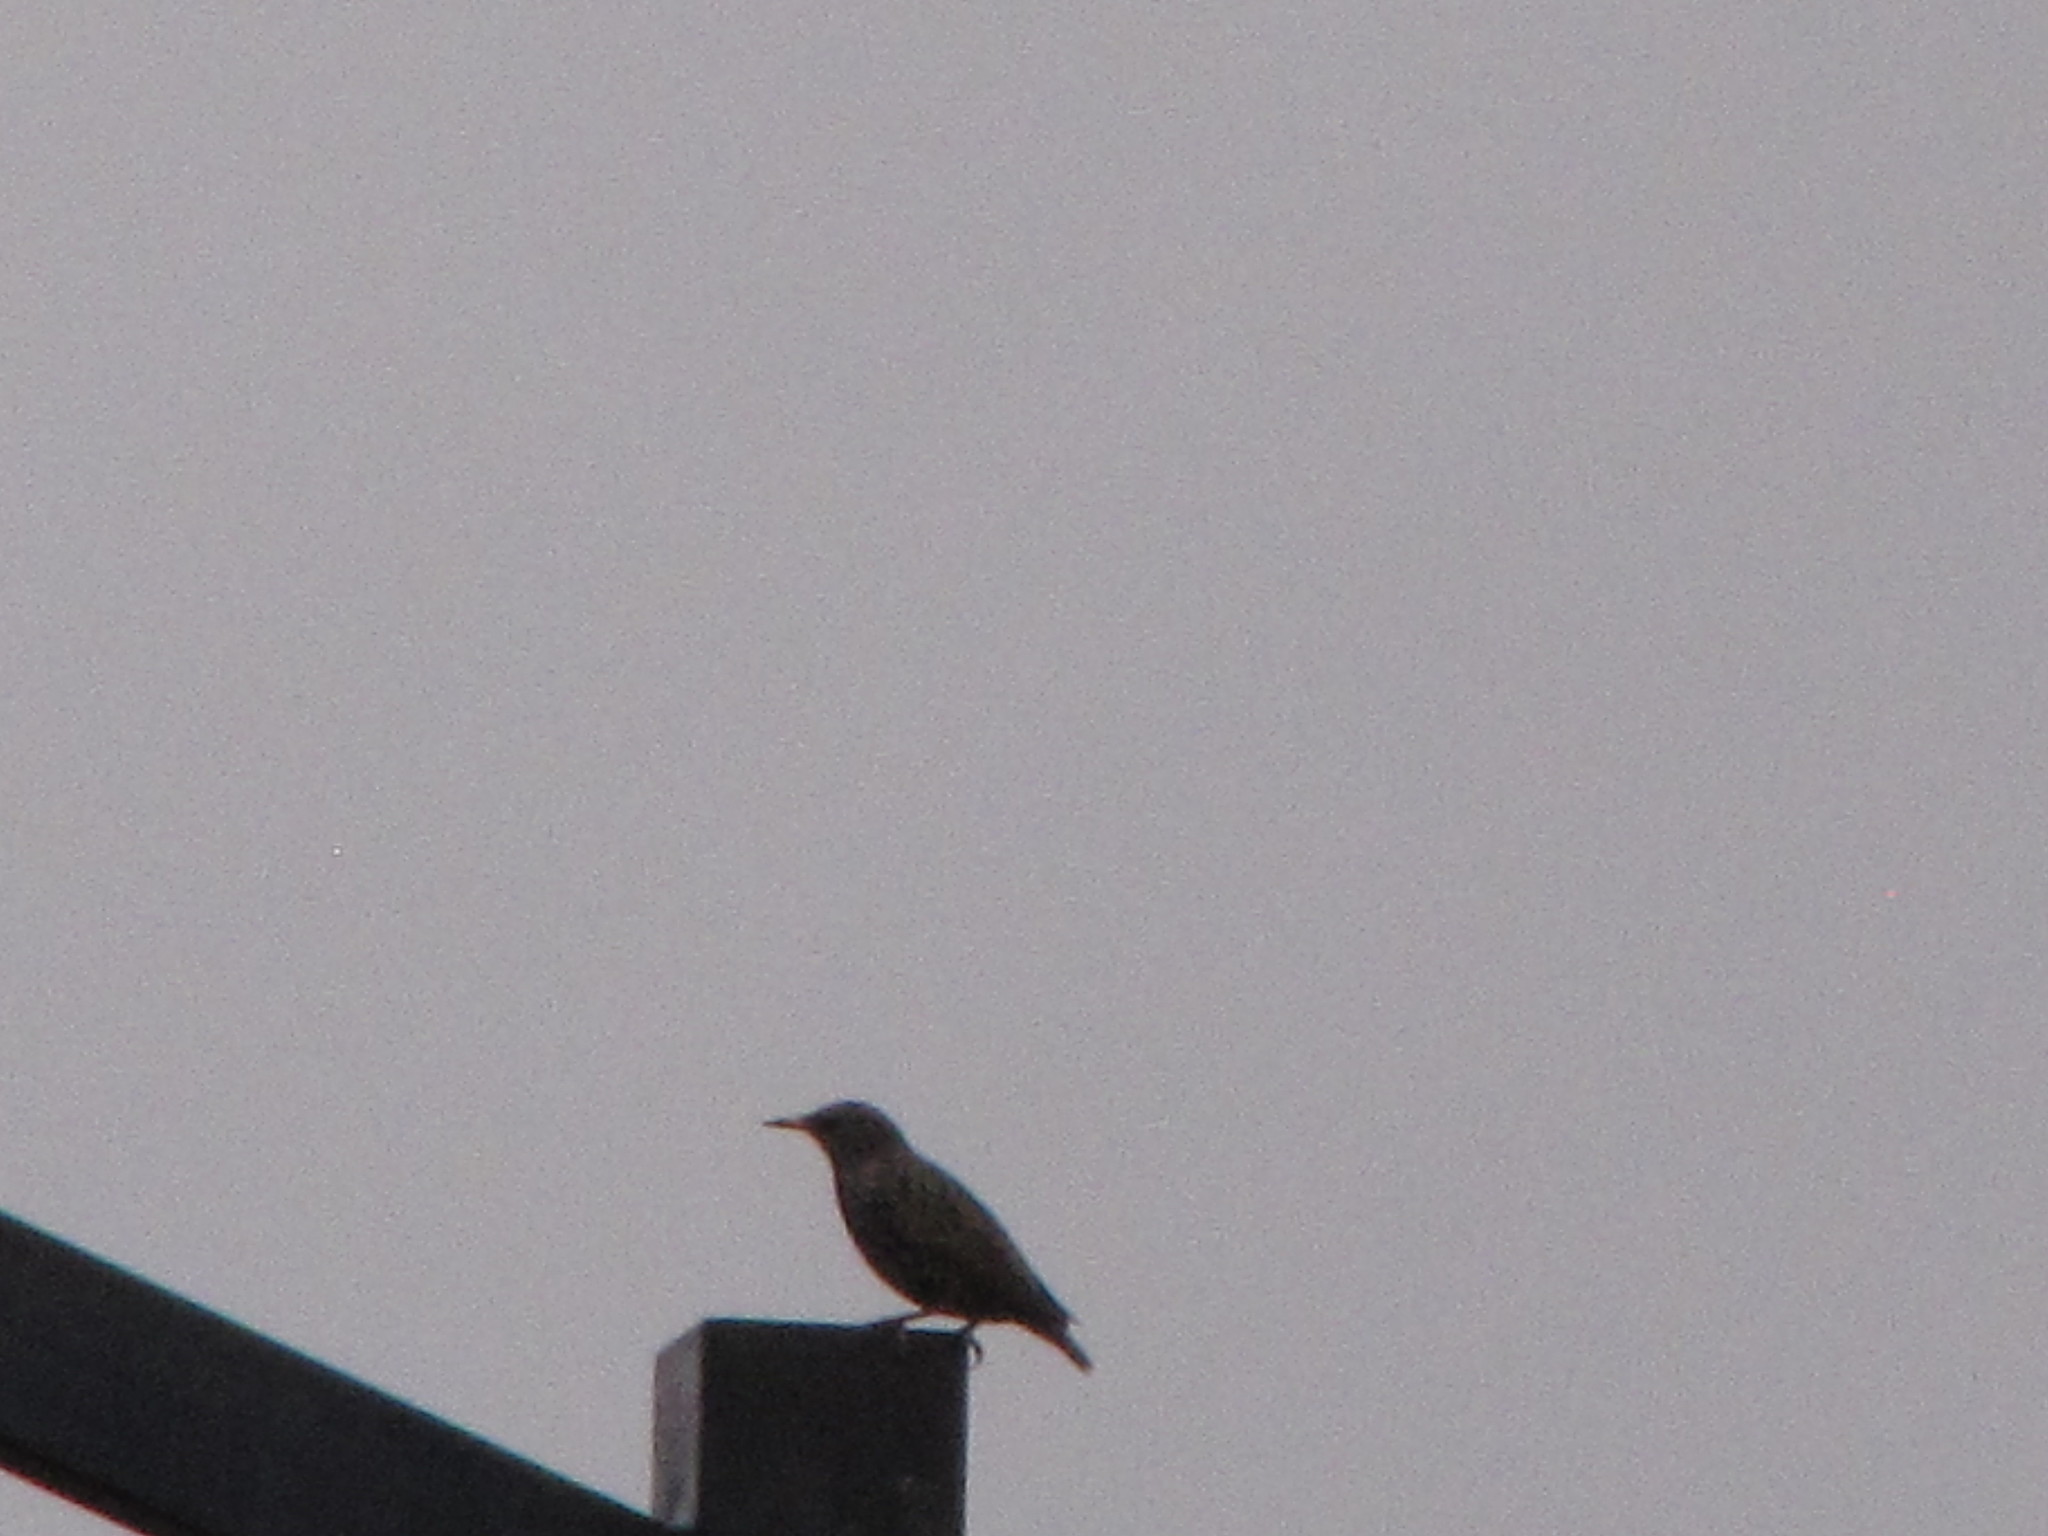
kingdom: Animalia
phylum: Chordata
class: Aves
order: Passeriformes
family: Sturnidae
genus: Sturnus
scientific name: Sturnus vulgaris
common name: Common starling
